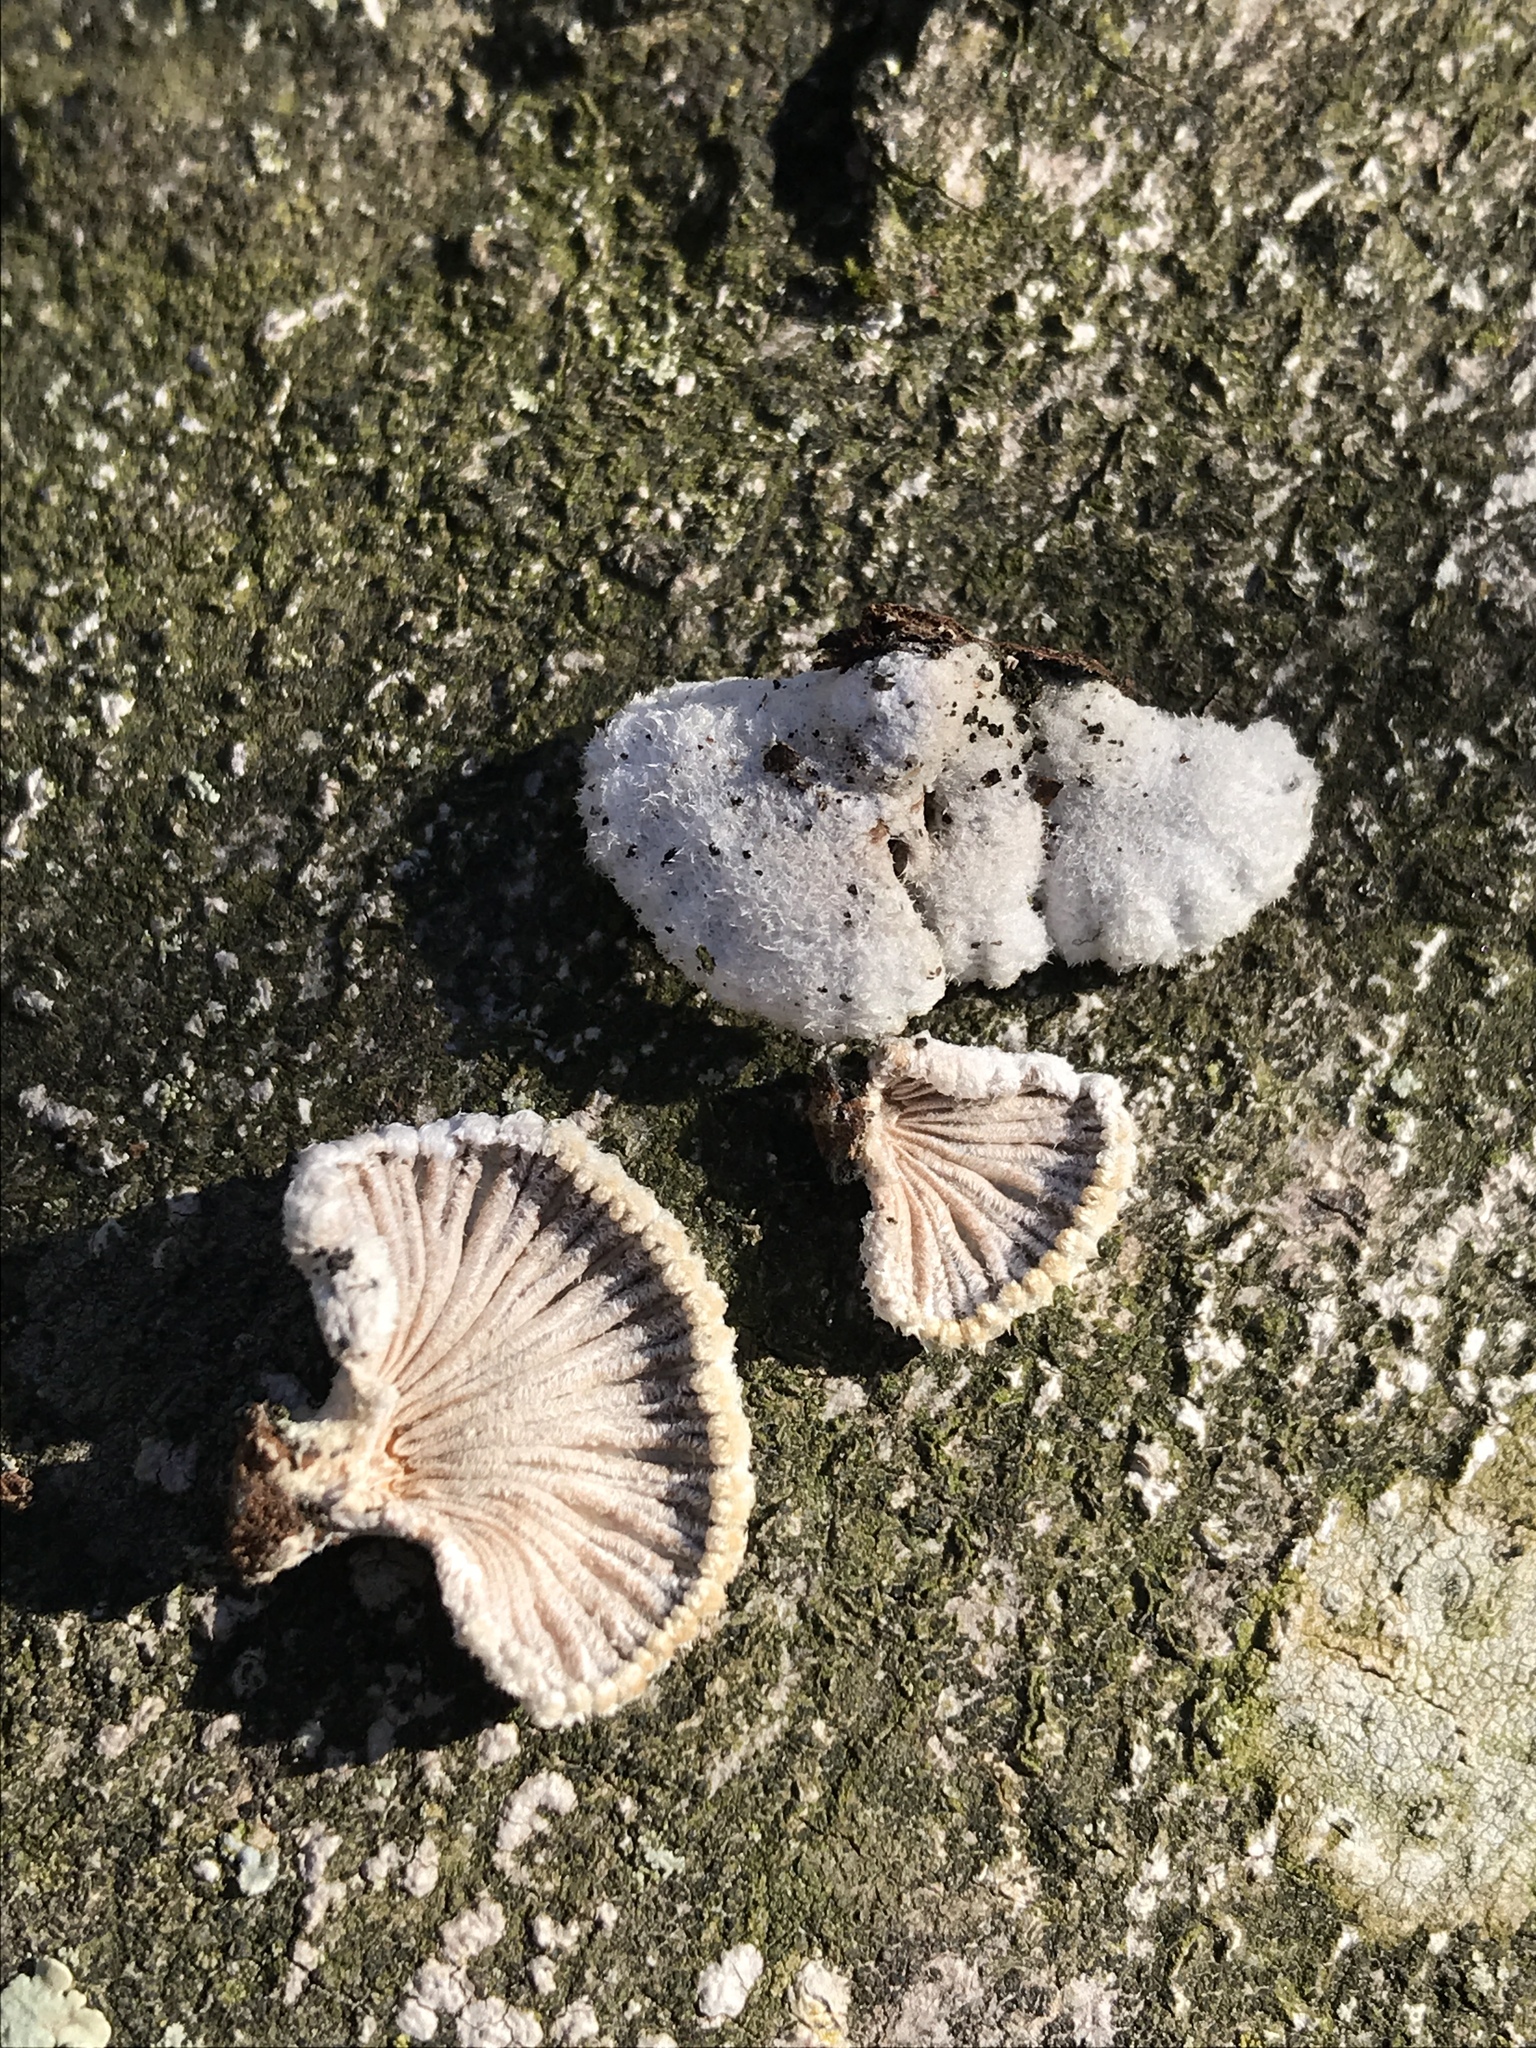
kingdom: Fungi
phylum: Basidiomycota
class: Agaricomycetes
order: Agaricales
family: Schizophyllaceae
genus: Schizophyllum
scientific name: Schizophyllum commune
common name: Common porecrust
